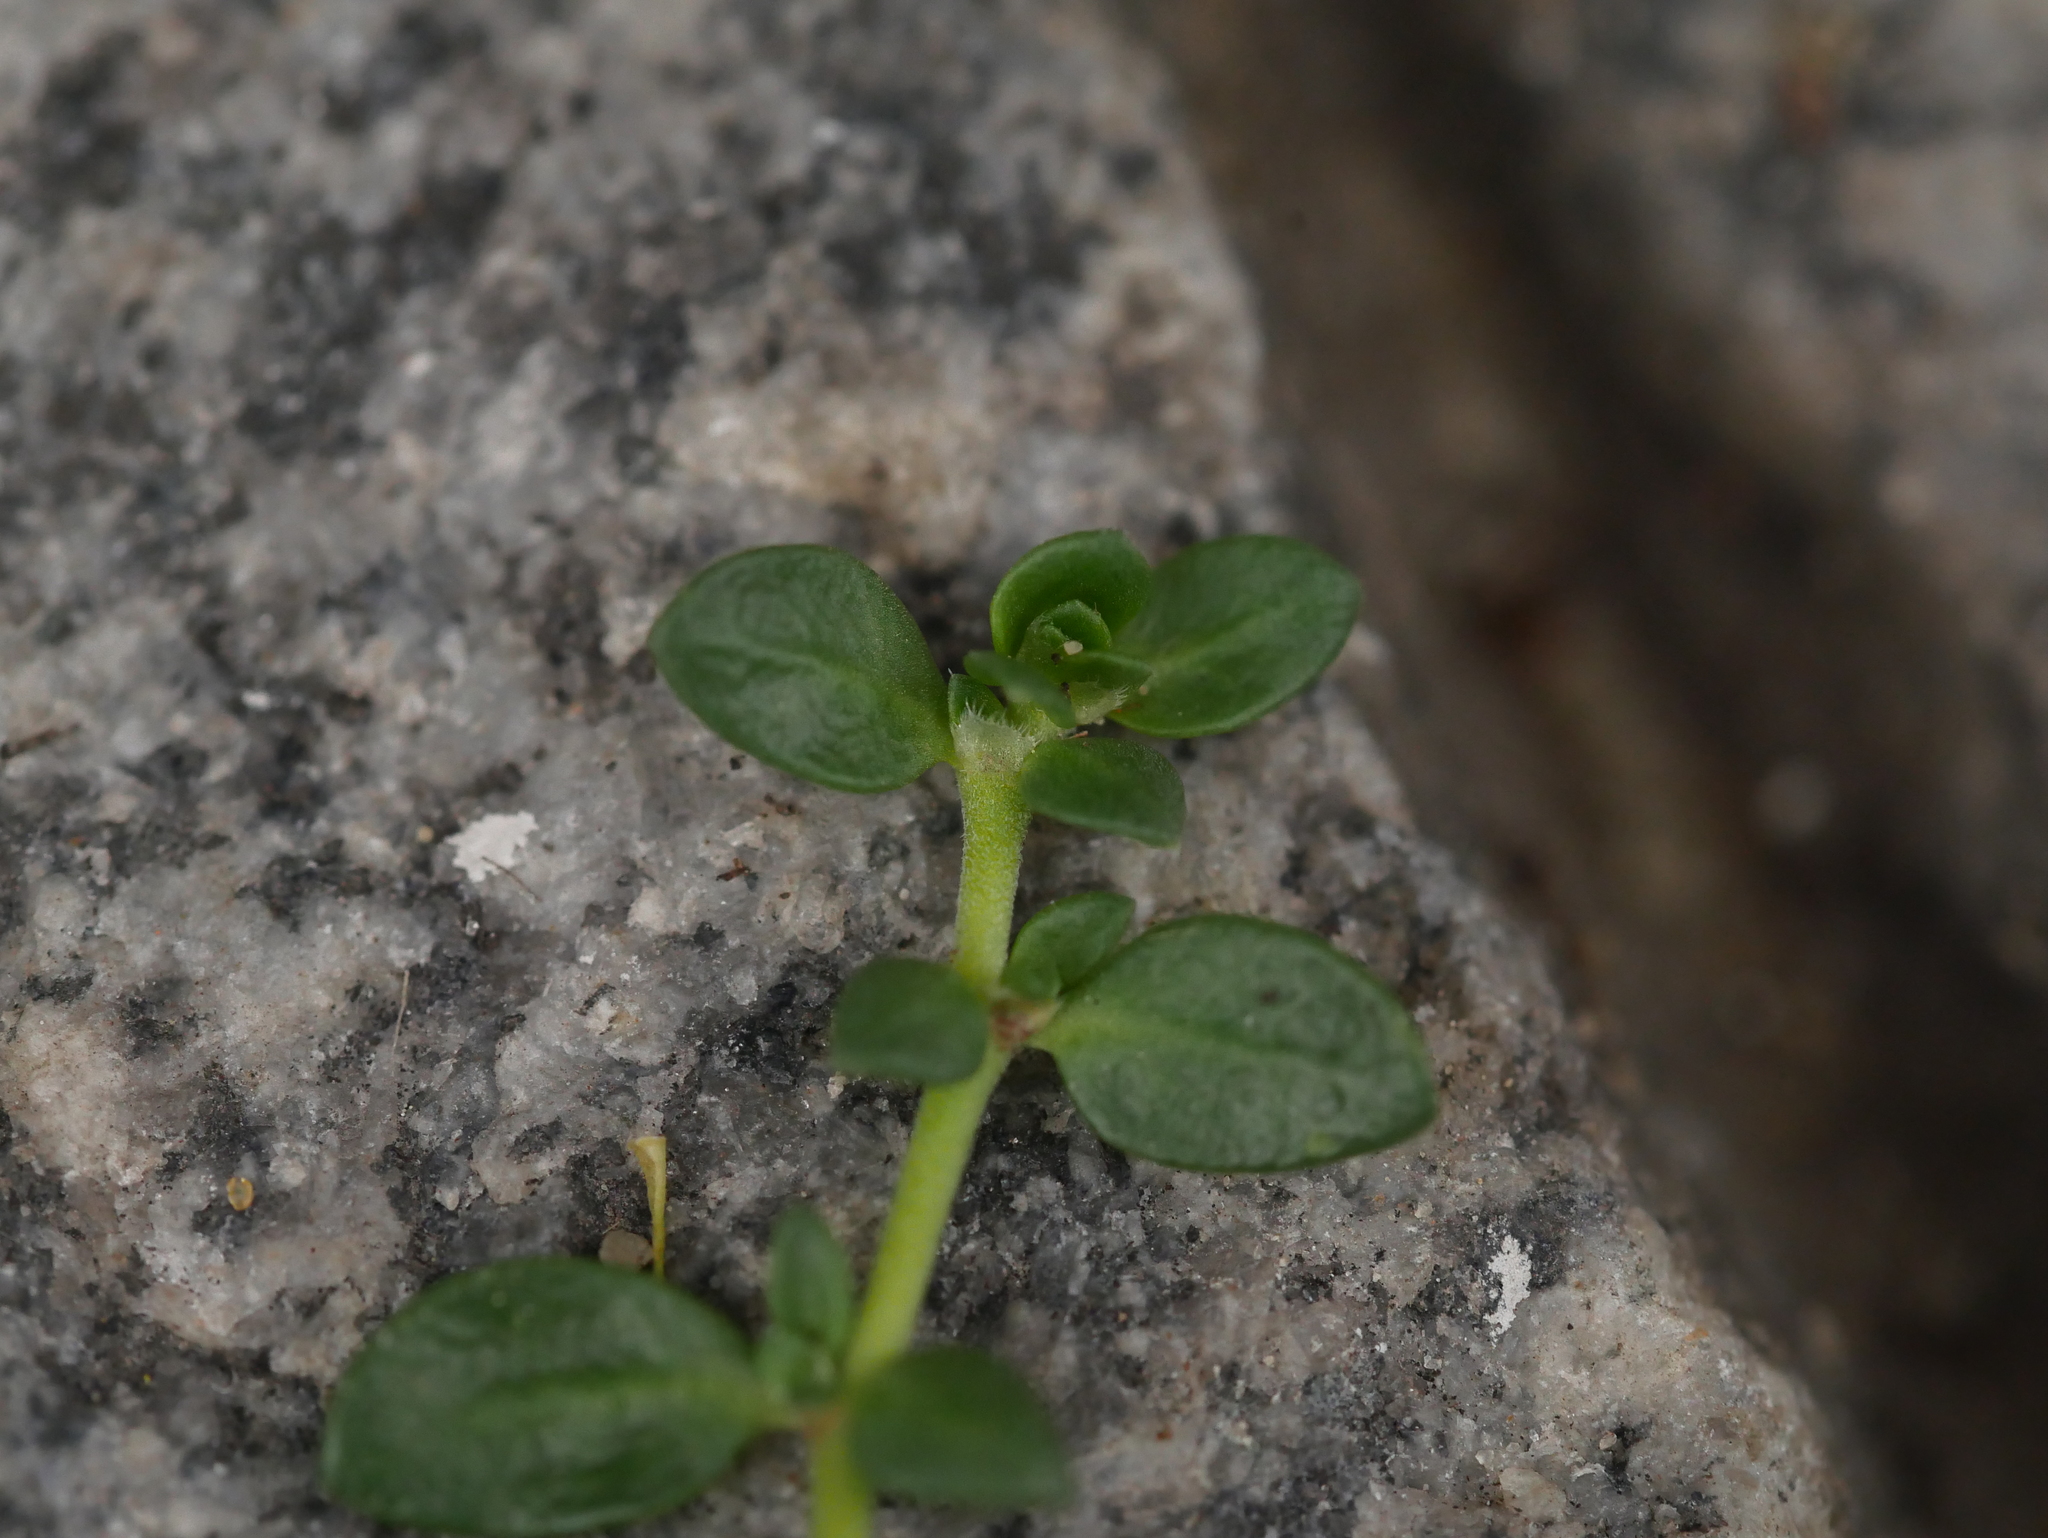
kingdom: Plantae
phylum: Tracheophyta
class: Magnoliopsida
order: Caryophyllales
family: Caryophyllaceae
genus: Herniaria
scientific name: Herniaria glabra
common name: Smooth rupturewort
